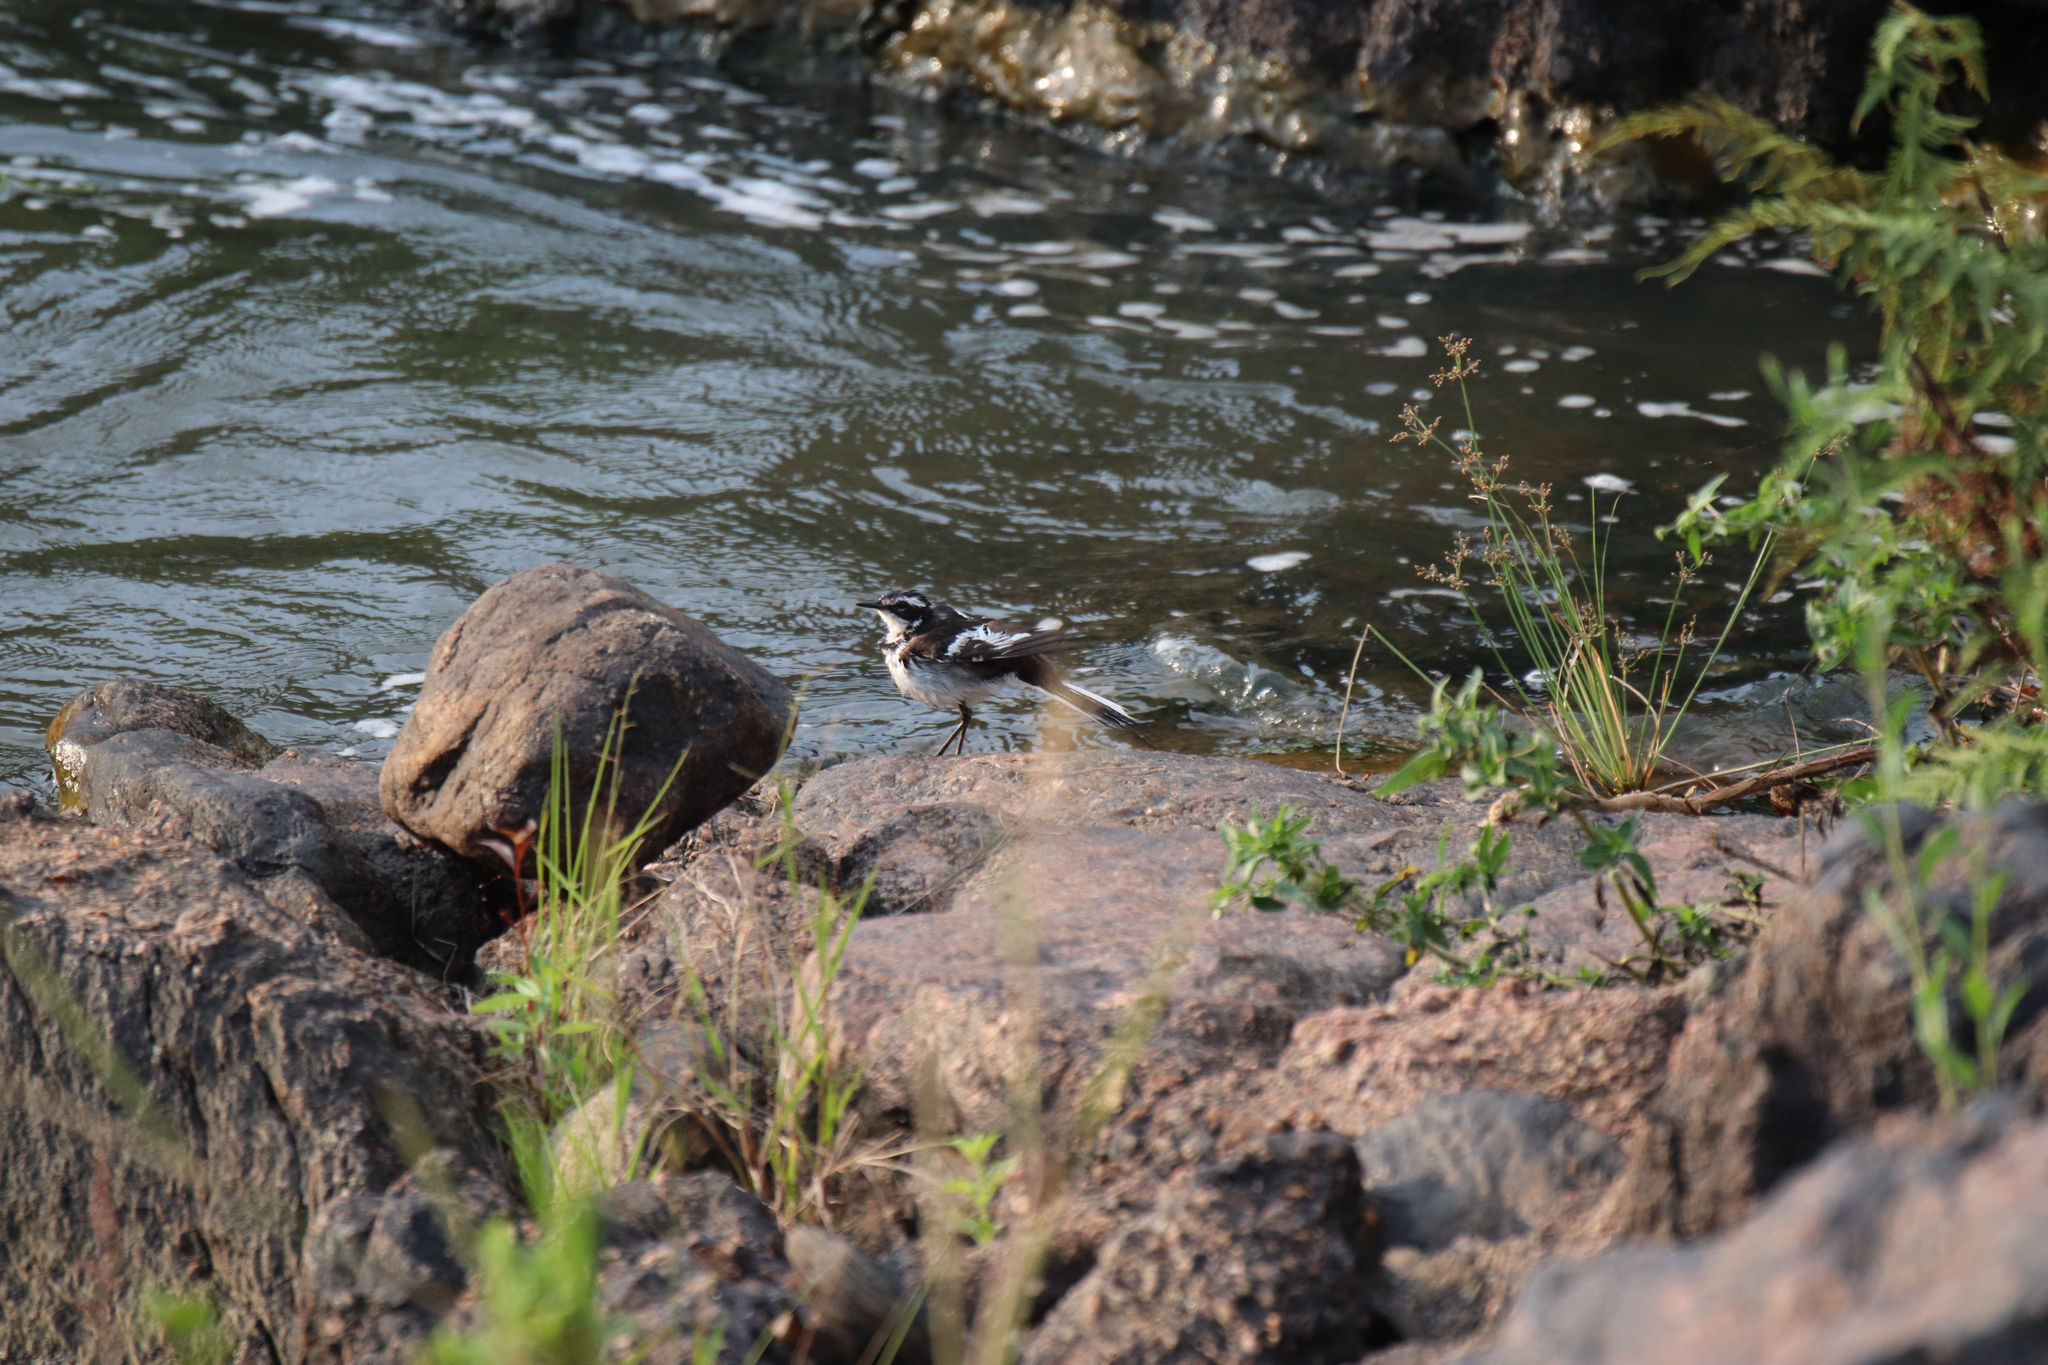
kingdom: Animalia
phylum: Chordata
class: Aves
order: Passeriformes
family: Motacillidae
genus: Motacilla
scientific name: Motacilla aguimp
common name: African pied wagtail
